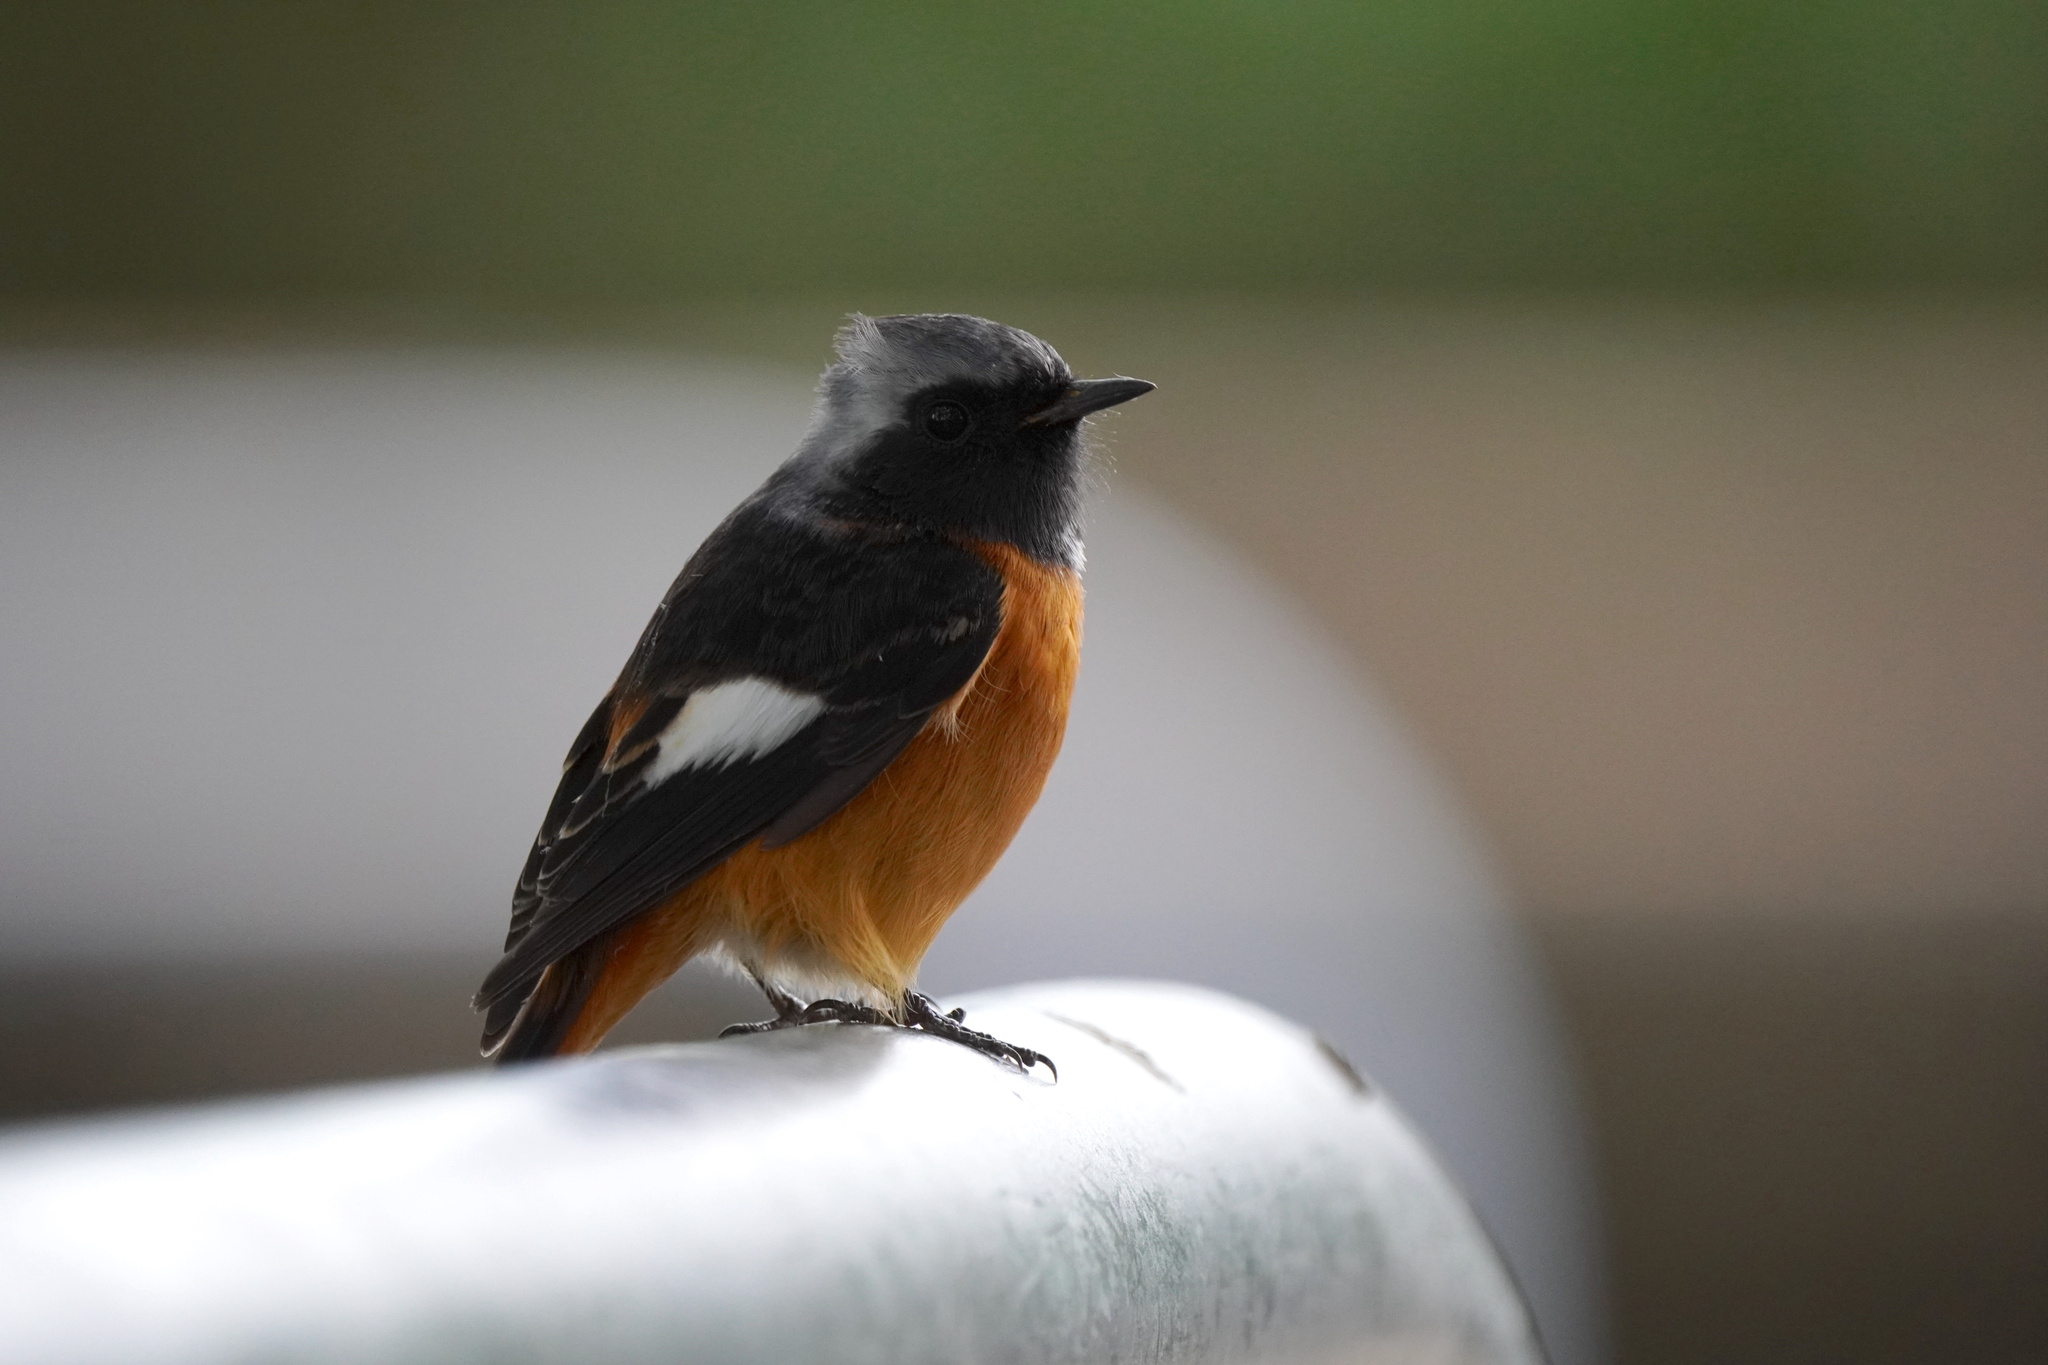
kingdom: Animalia
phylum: Chordata
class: Aves
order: Passeriformes
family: Muscicapidae
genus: Phoenicurus
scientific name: Phoenicurus auroreus
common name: Daurian redstart
